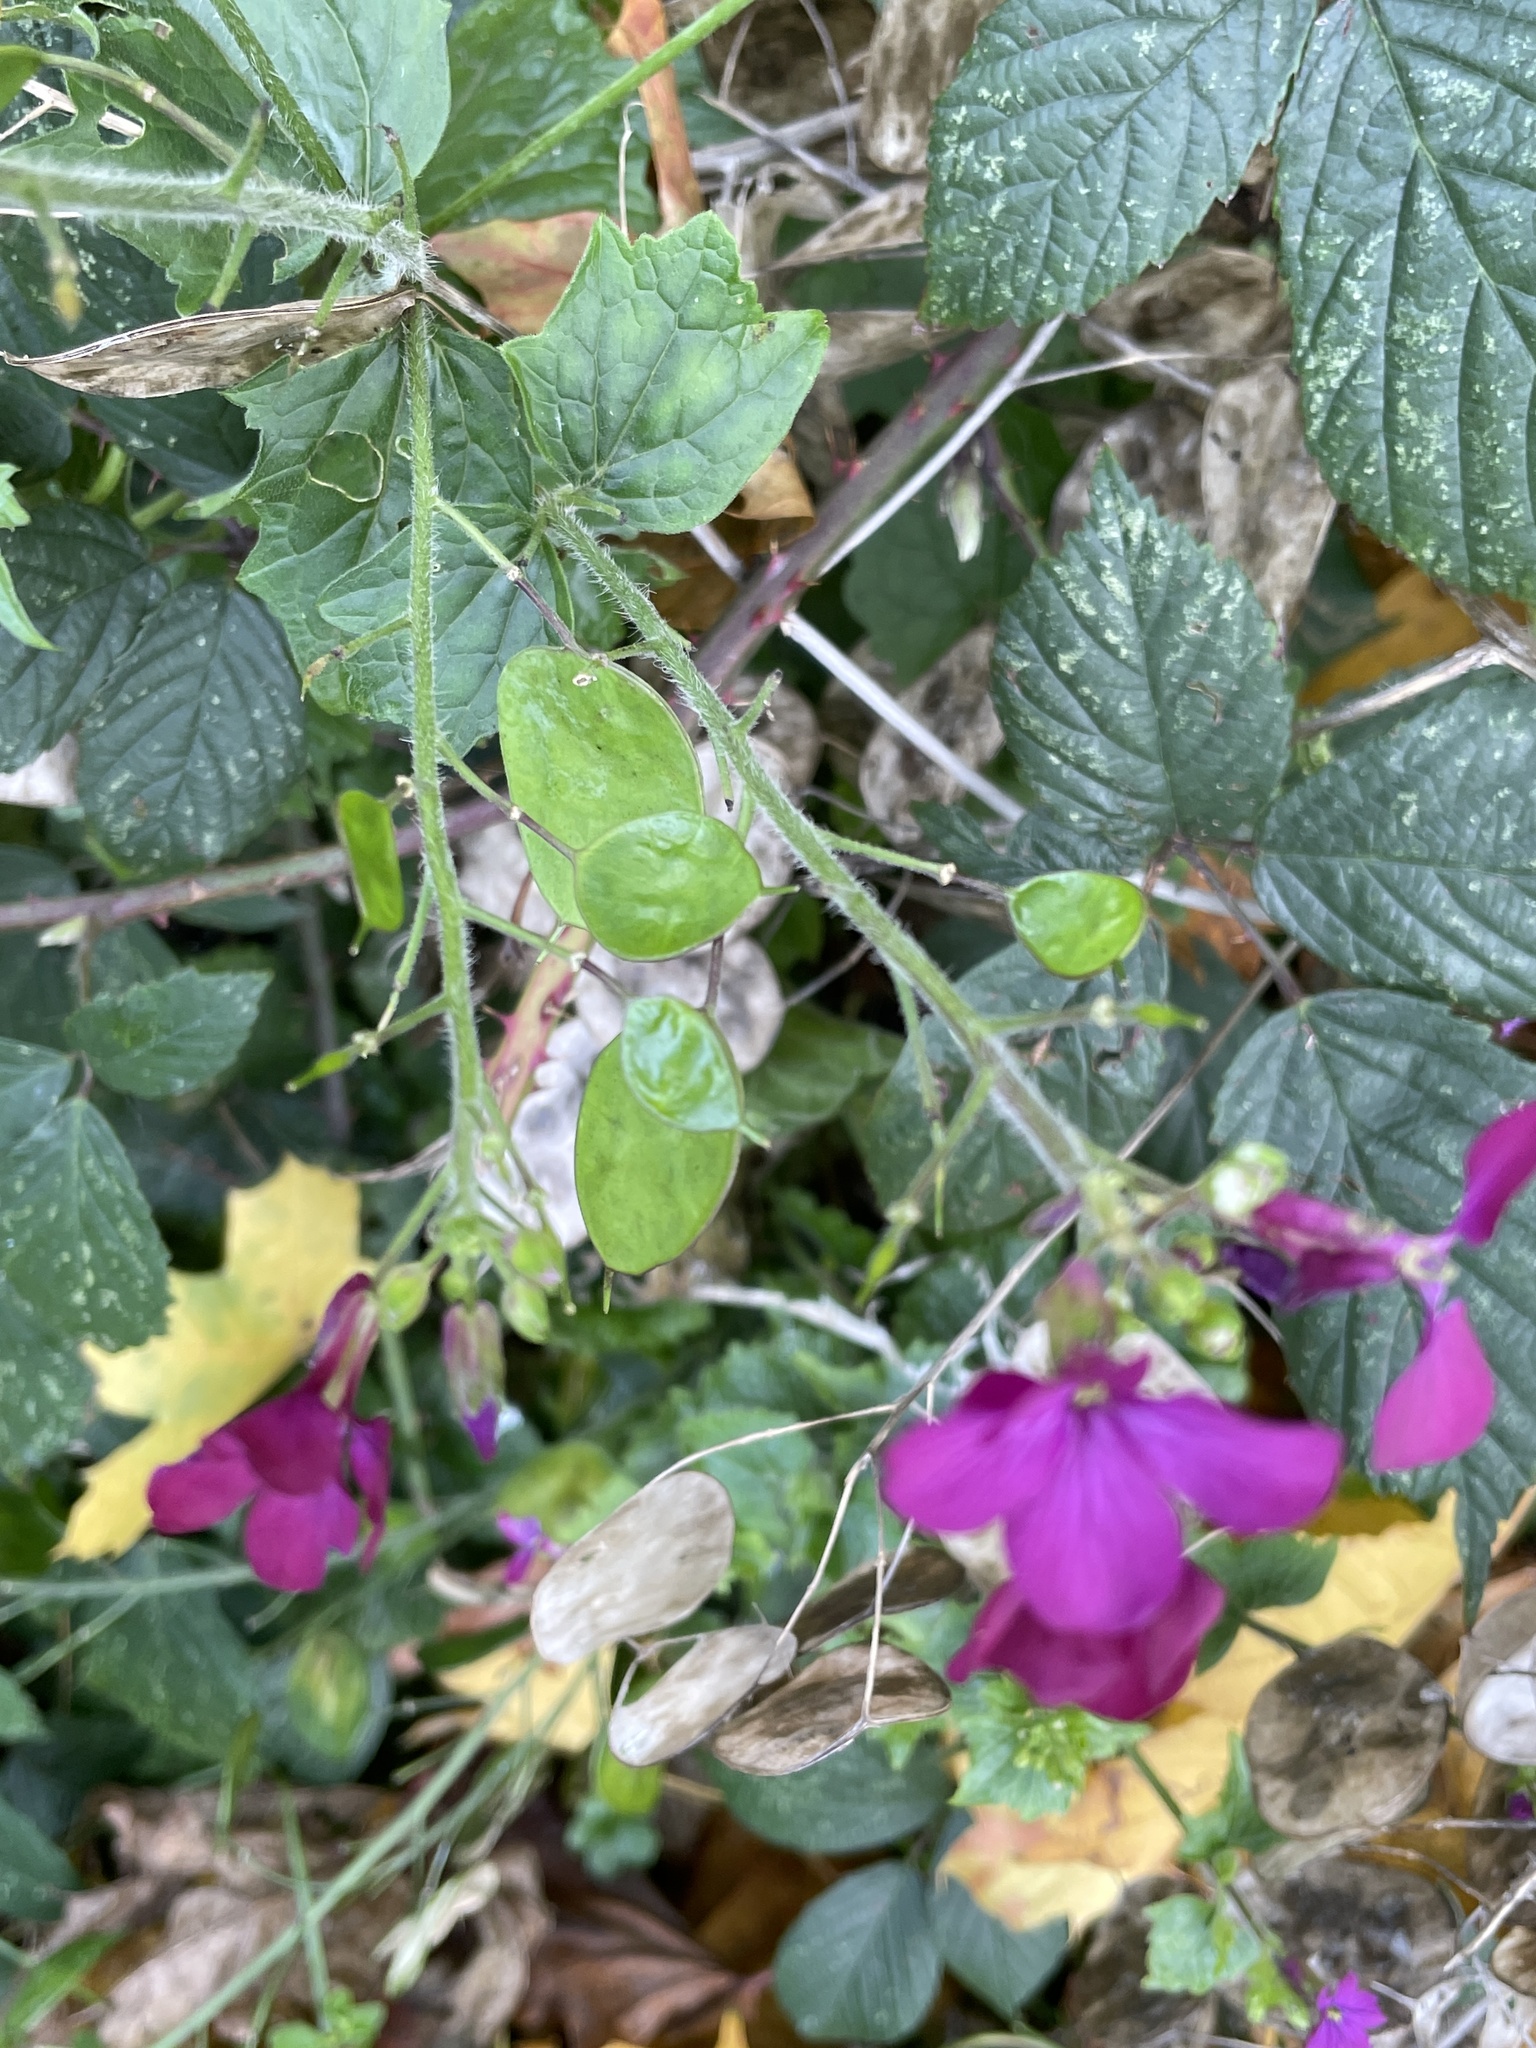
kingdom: Plantae
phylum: Tracheophyta
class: Magnoliopsida
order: Brassicales
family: Brassicaceae
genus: Lunaria
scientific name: Lunaria annua
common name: Honesty
